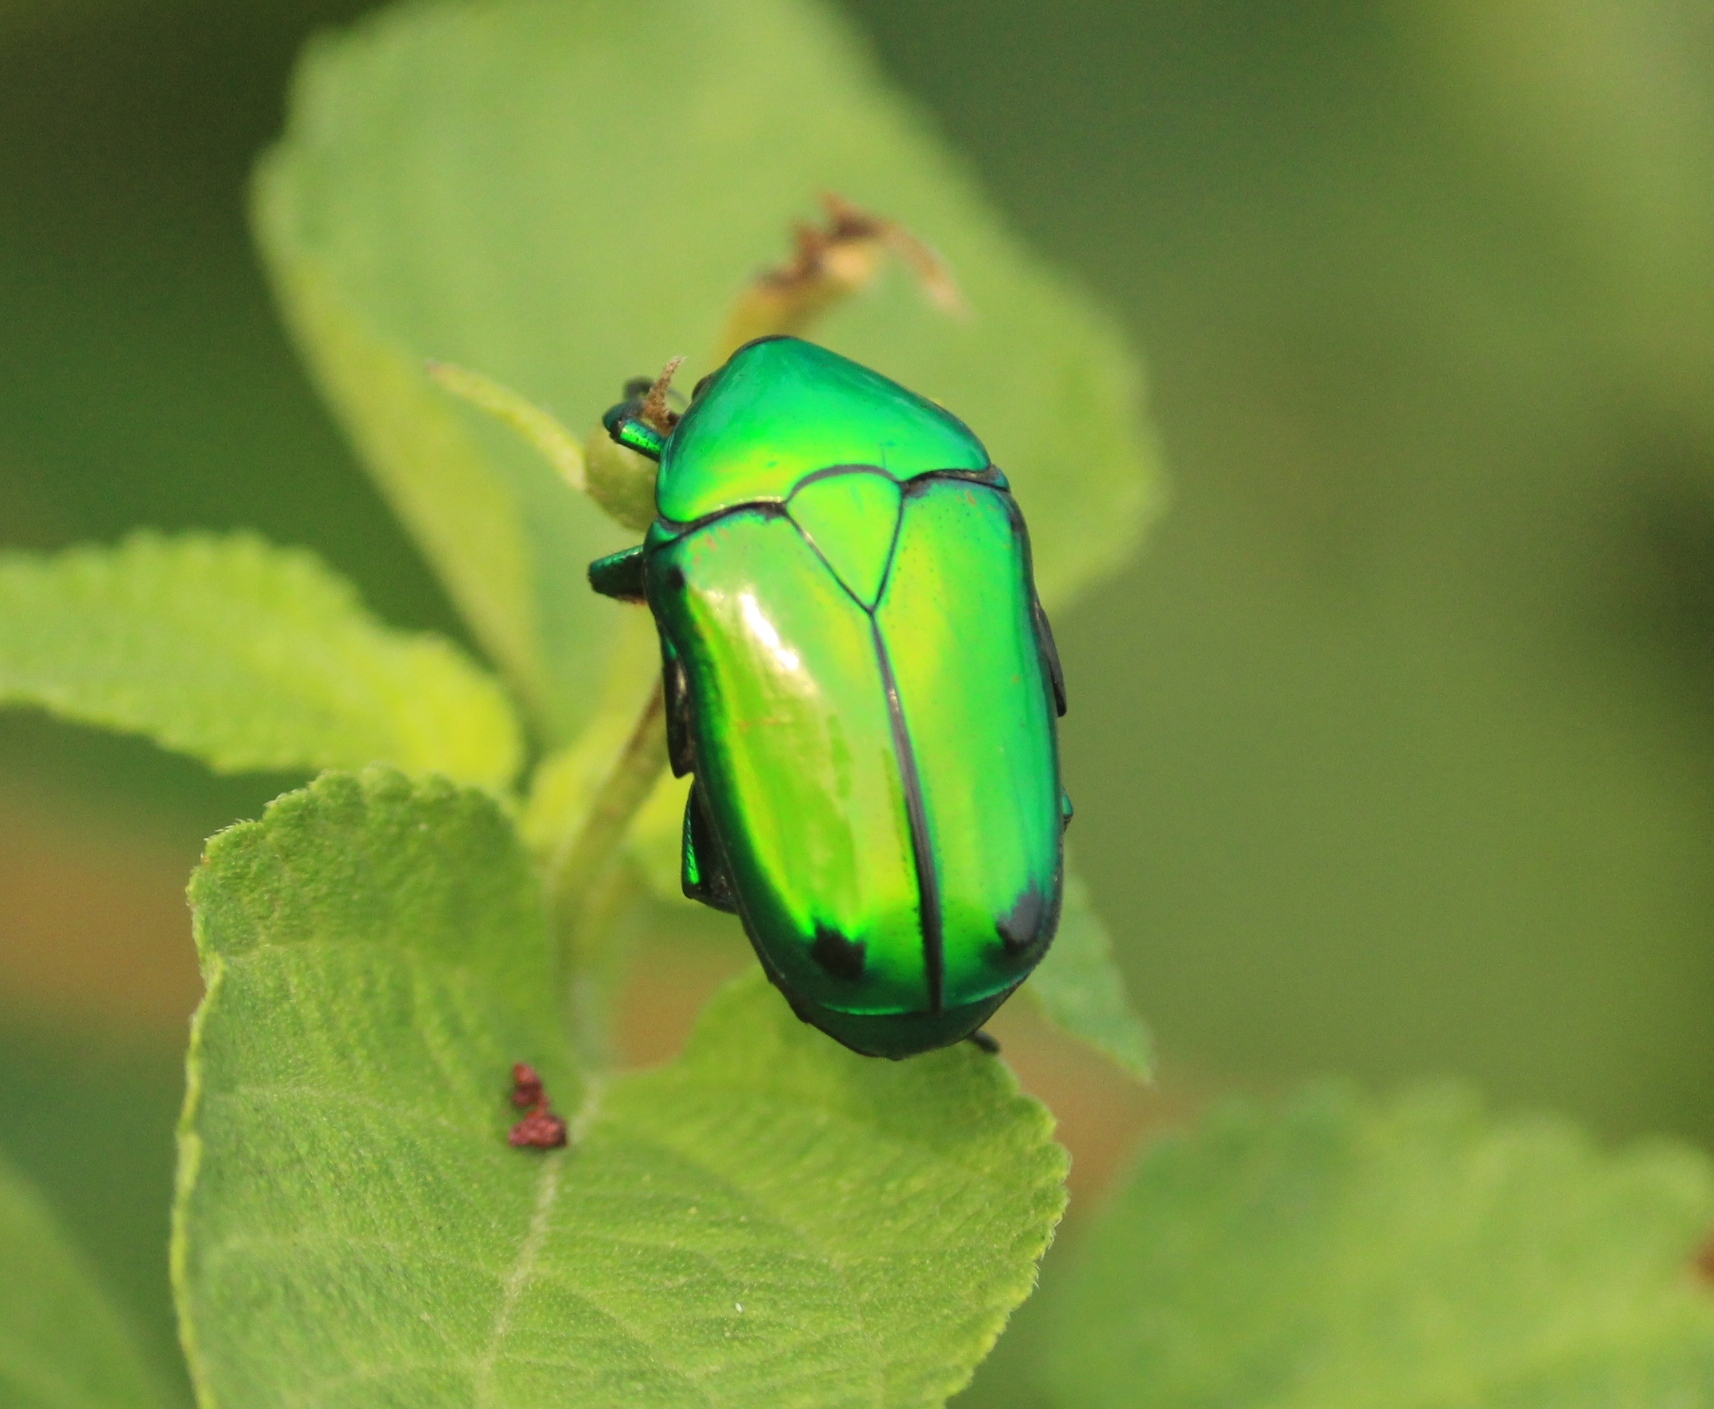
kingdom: Animalia
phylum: Arthropoda
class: Insecta
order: Coleoptera
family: Scarabaeidae
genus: Ptychodesthes
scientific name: Ptychodesthes Heterorrhina elegans
